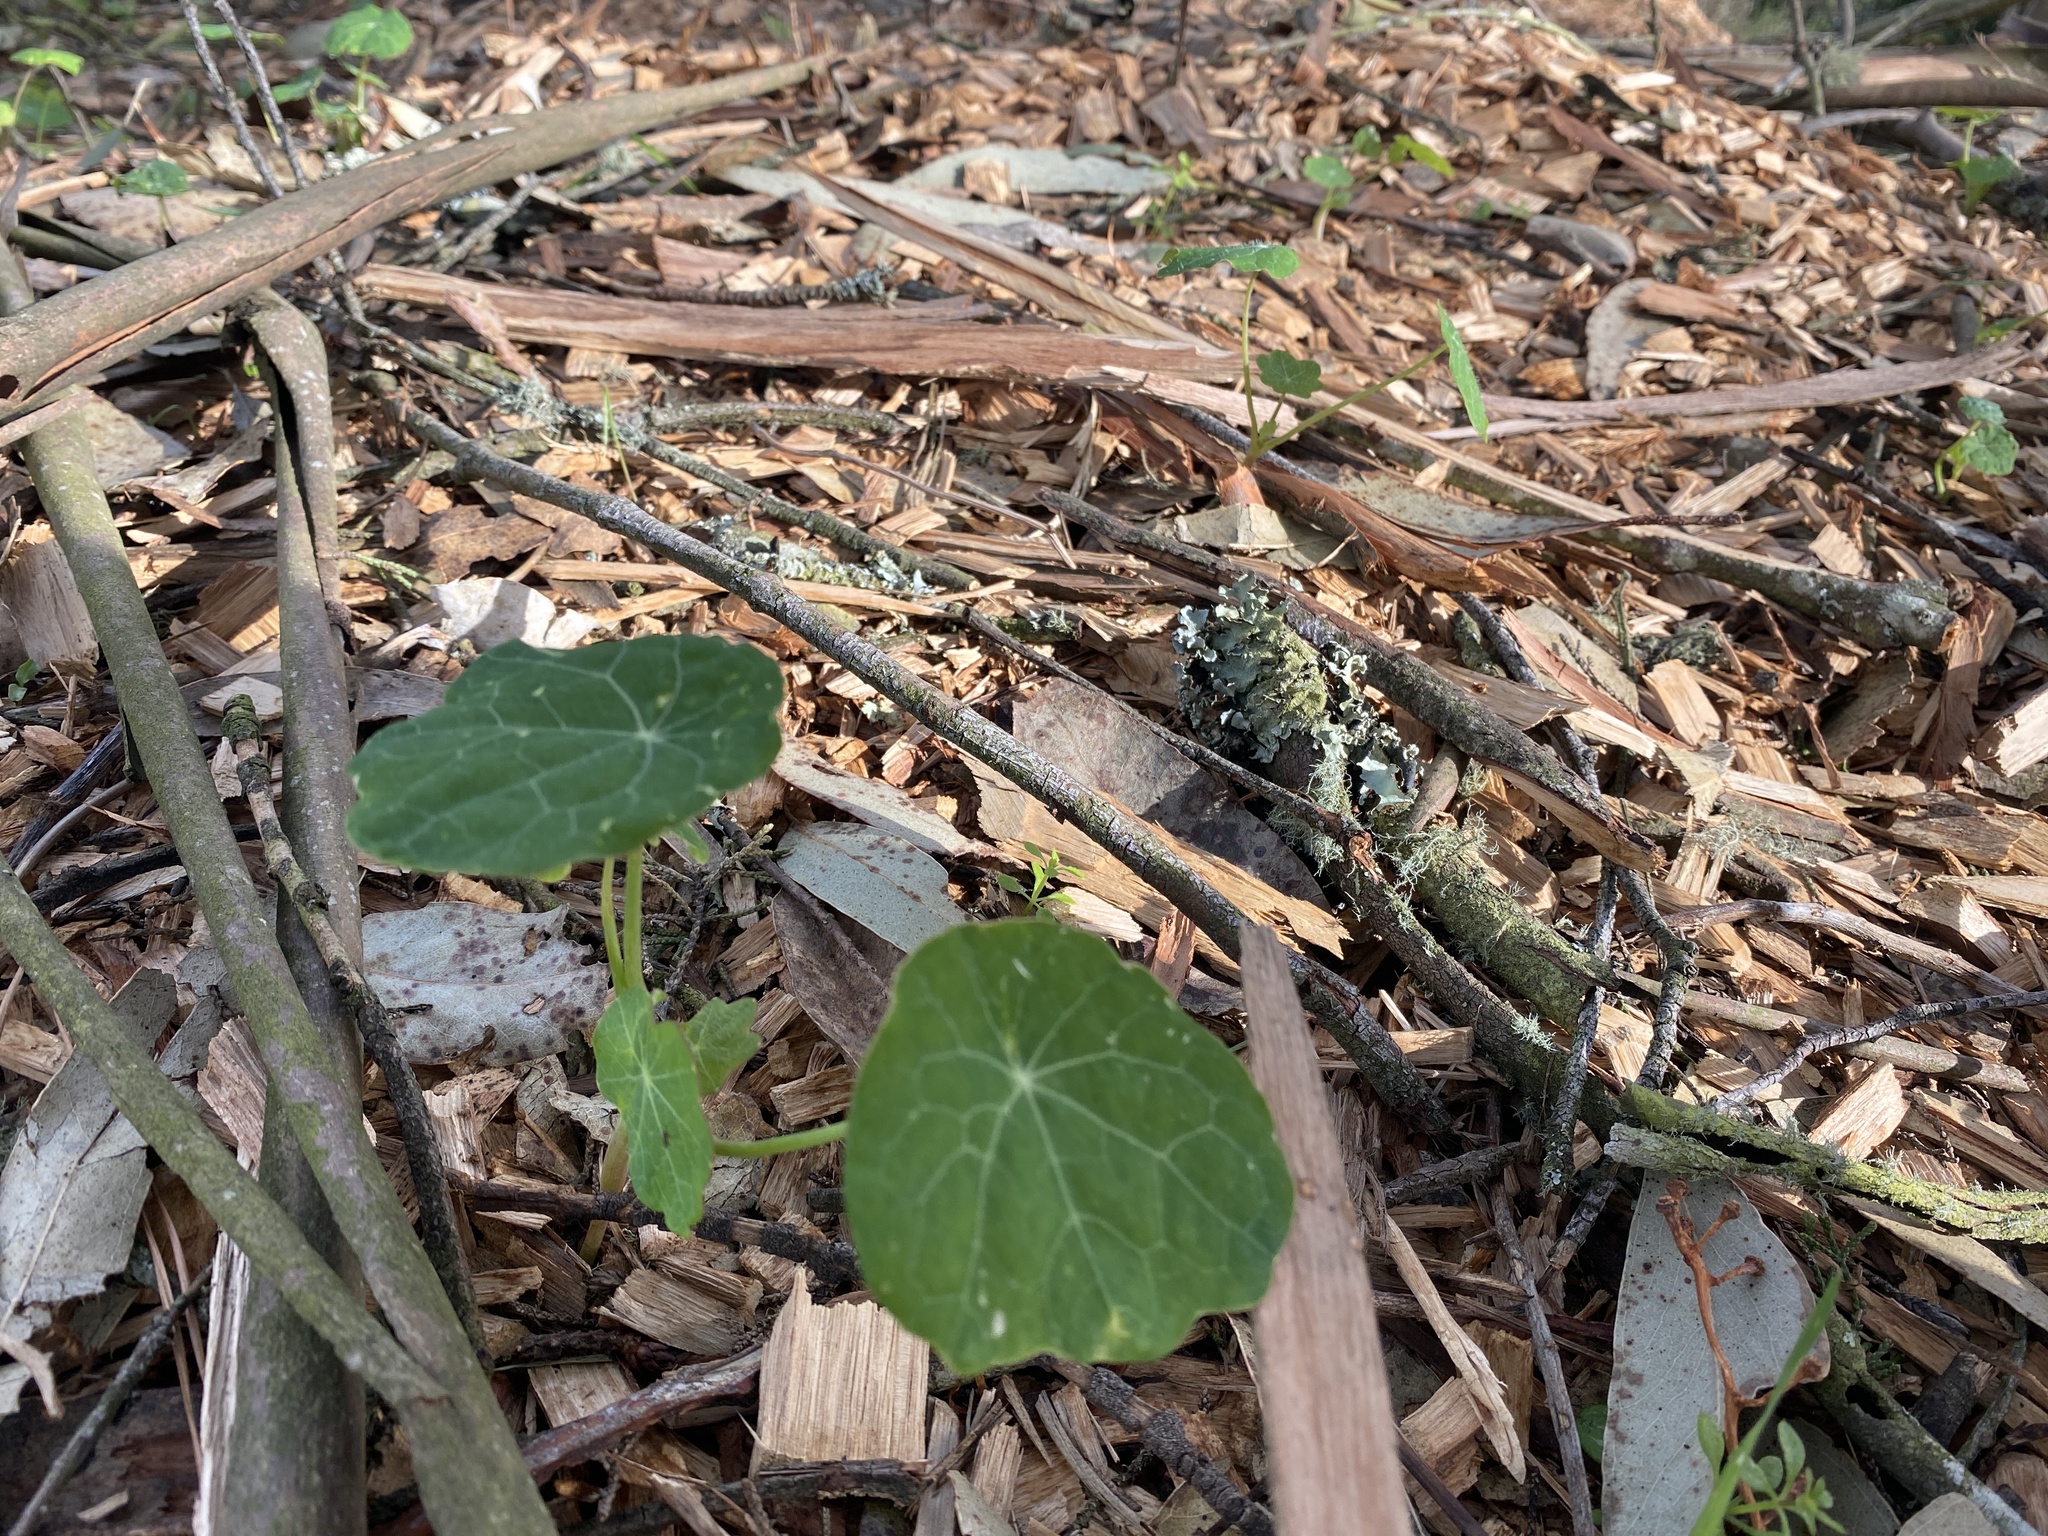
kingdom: Plantae
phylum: Tracheophyta
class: Magnoliopsida
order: Brassicales
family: Tropaeolaceae
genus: Tropaeolum
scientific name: Tropaeolum majus
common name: Nasturtium
